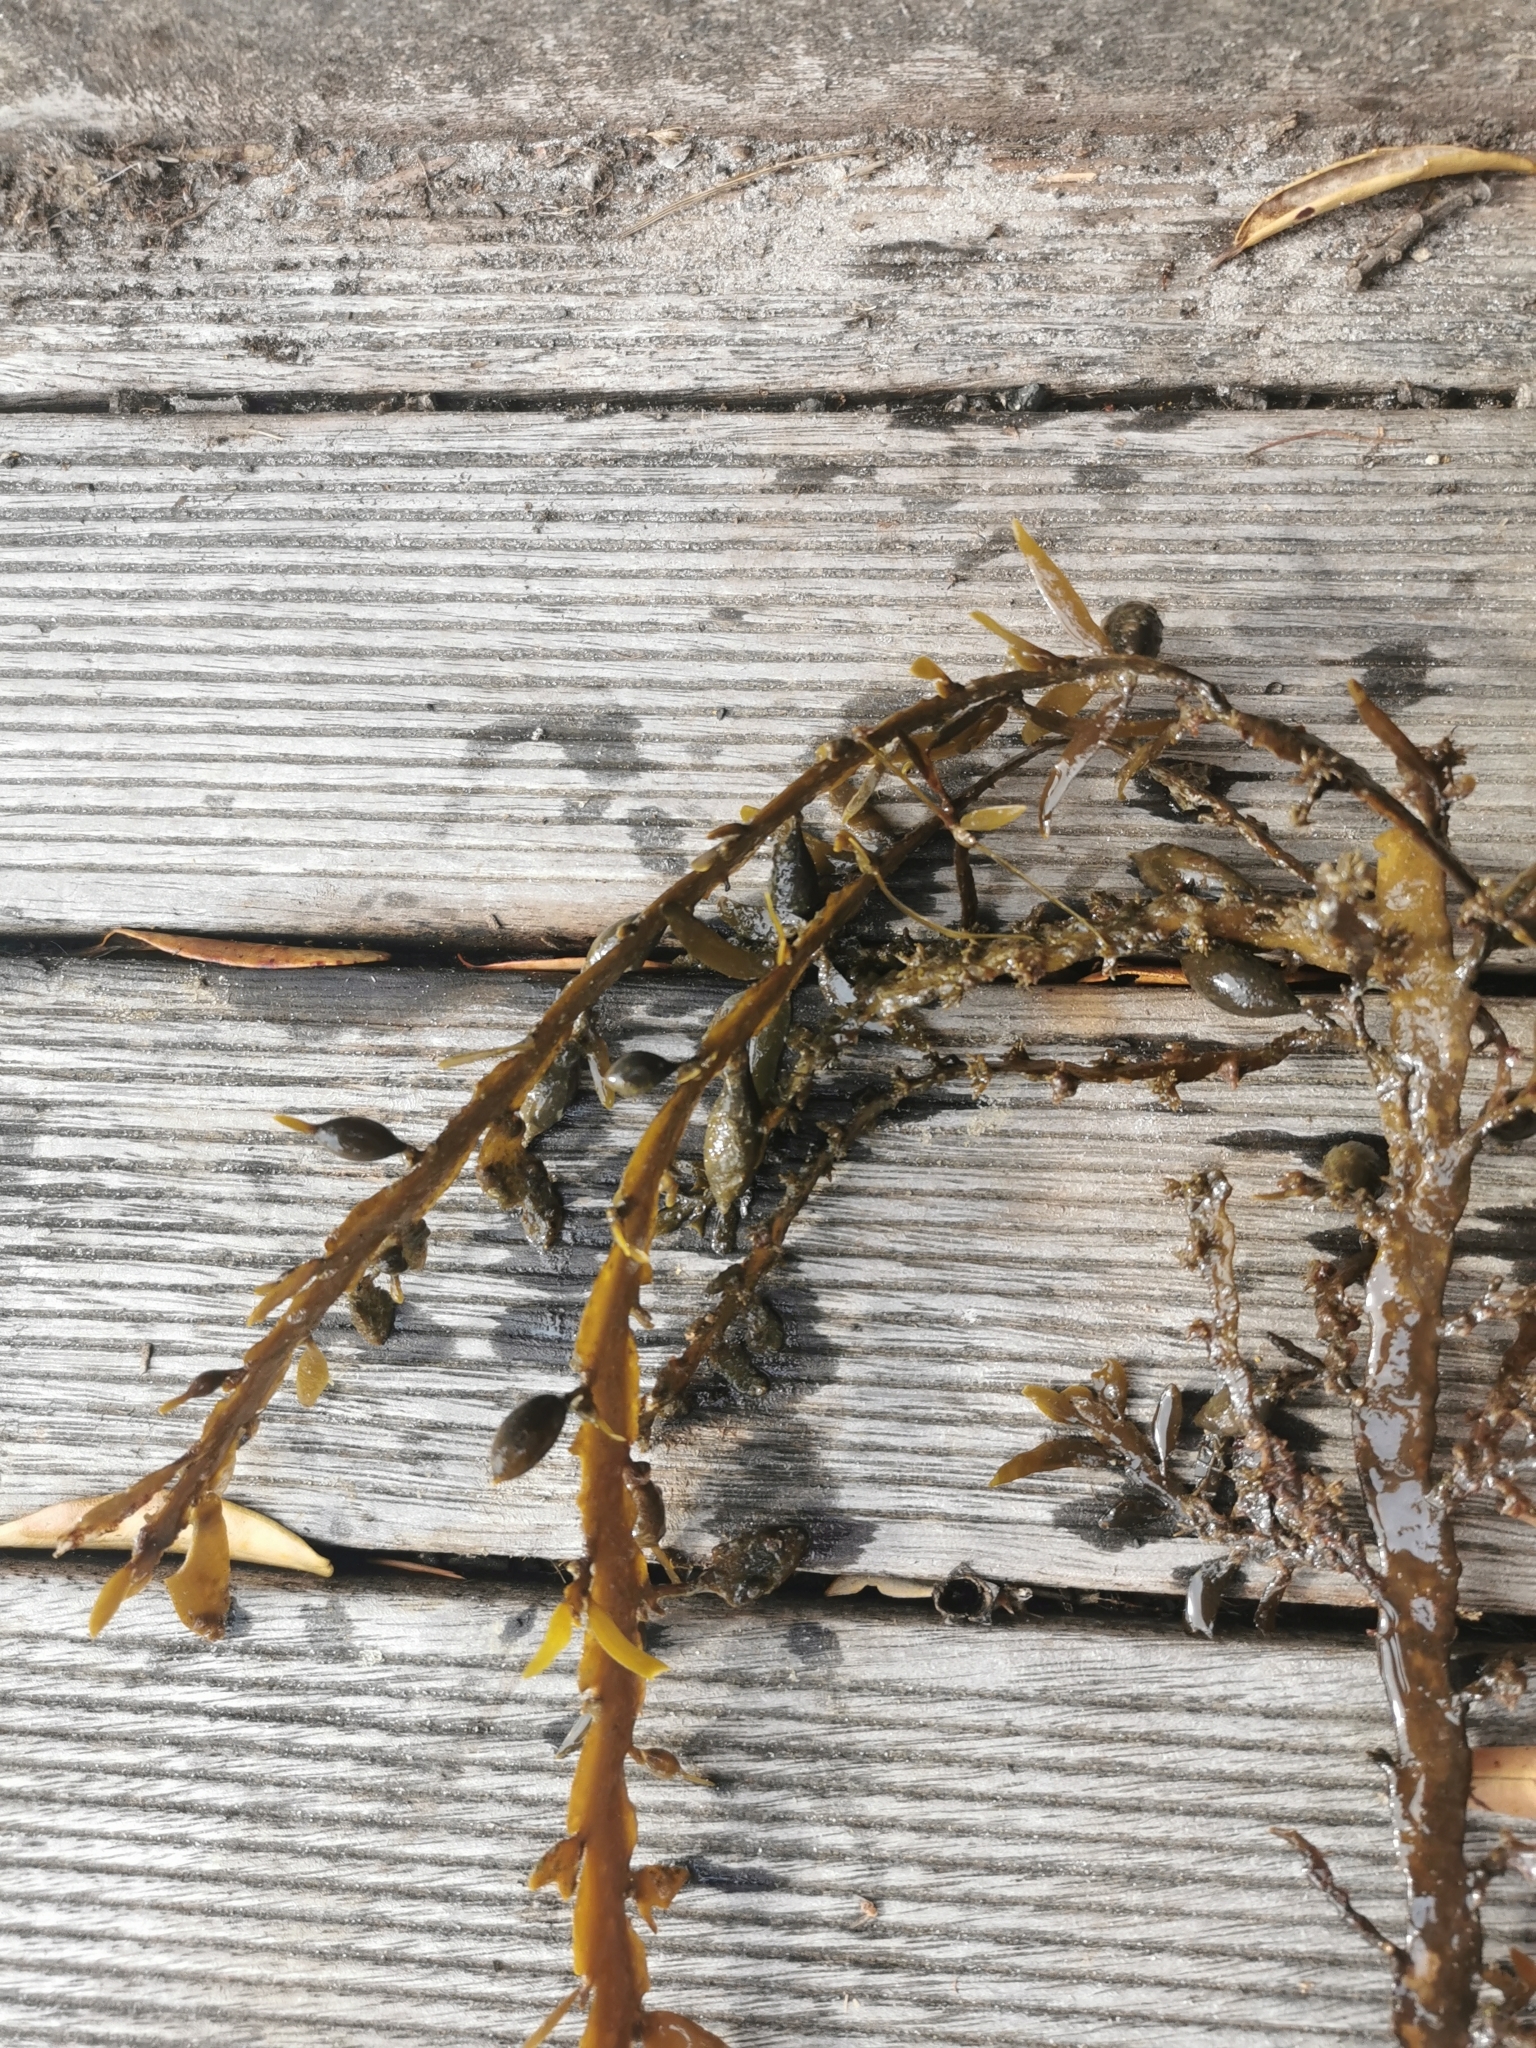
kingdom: Chromista
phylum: Ochrophyta
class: Phaeophyceae
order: Fucales
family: Sargassaceae
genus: Carpophyllum
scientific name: Carpophyllum maschalocarpum
